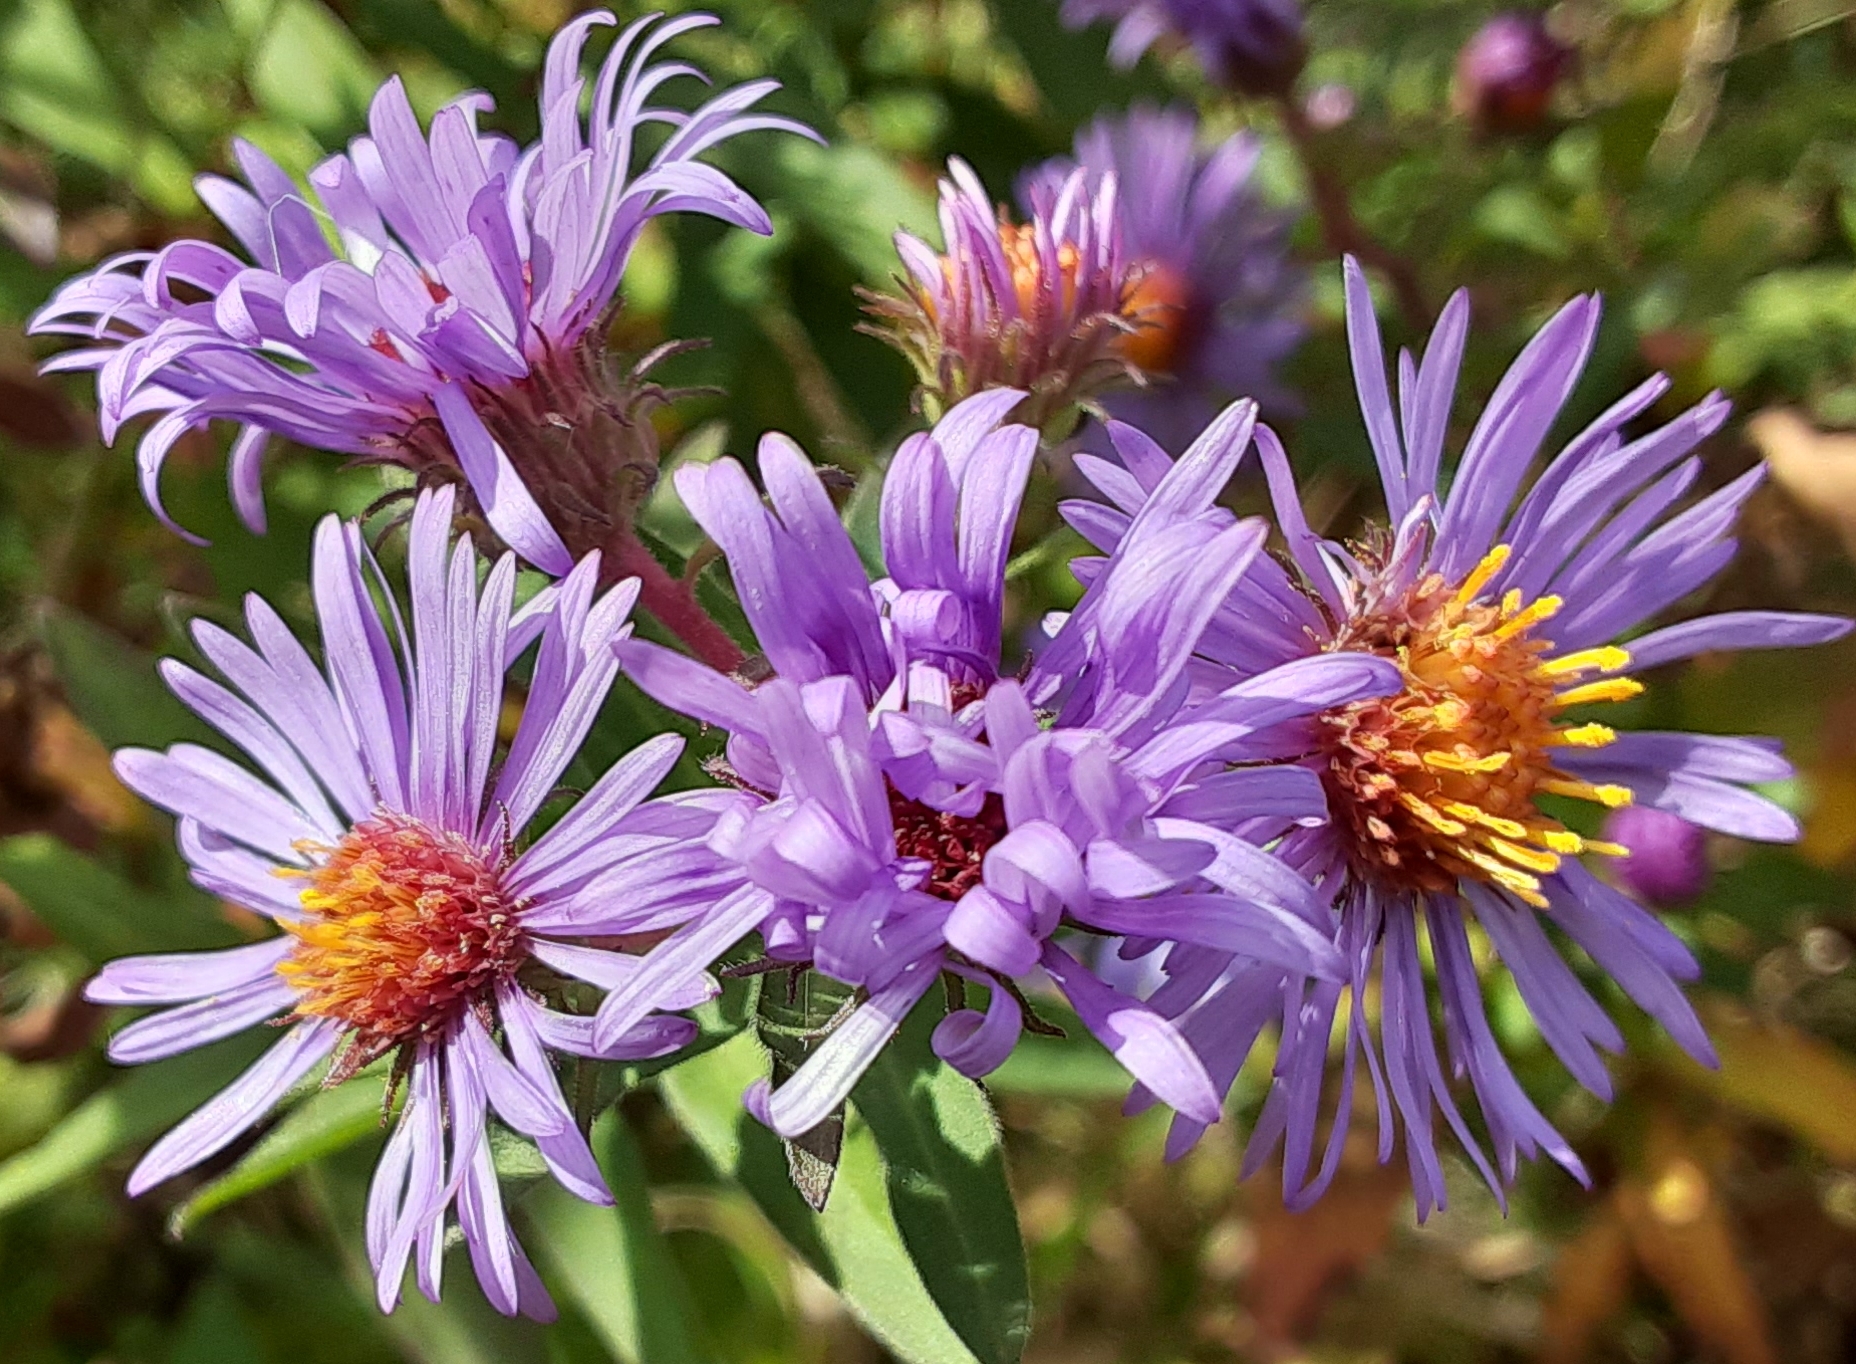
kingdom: Plantae
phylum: Tracheophyta
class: Magnoliopsida
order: Asterales
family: Asteraceae
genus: Symphyotrichum
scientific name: Symphyotrichum novae-angliae
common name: Michaelmas daisy
